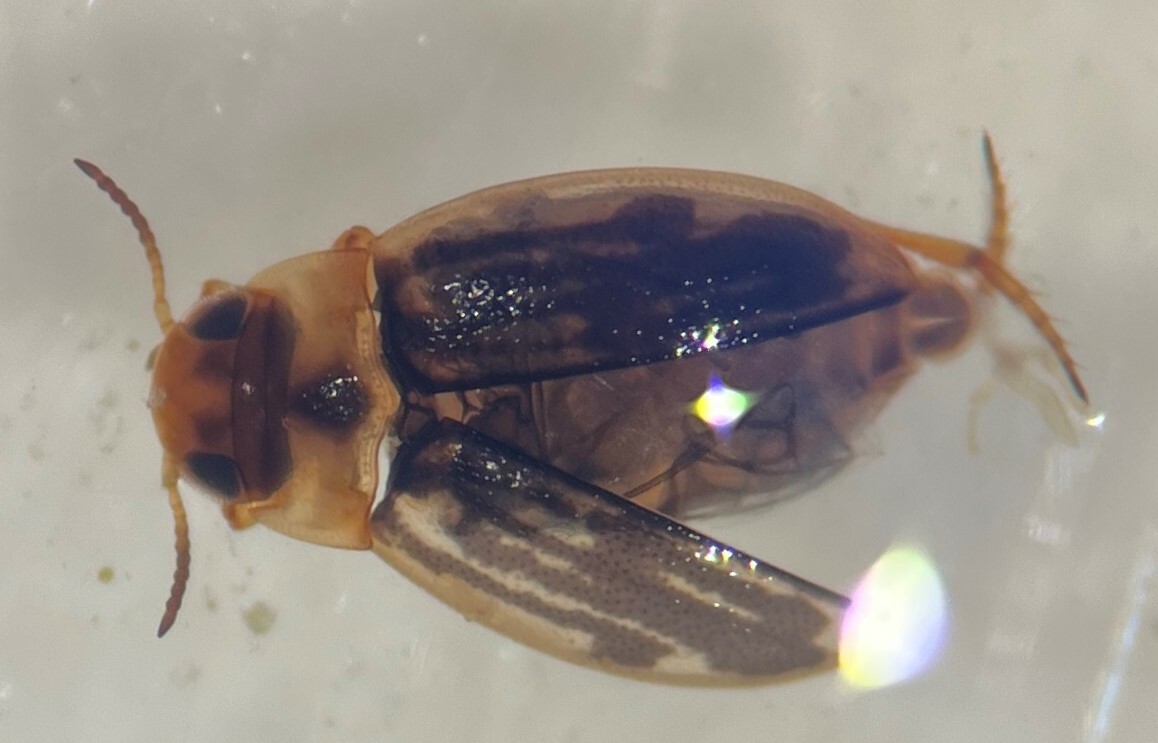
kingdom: Animalia
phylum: Arthropoda
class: Insecta
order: Coleoptera
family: Dytiscidae
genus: Liodessus
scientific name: Liodessus obscurellus
